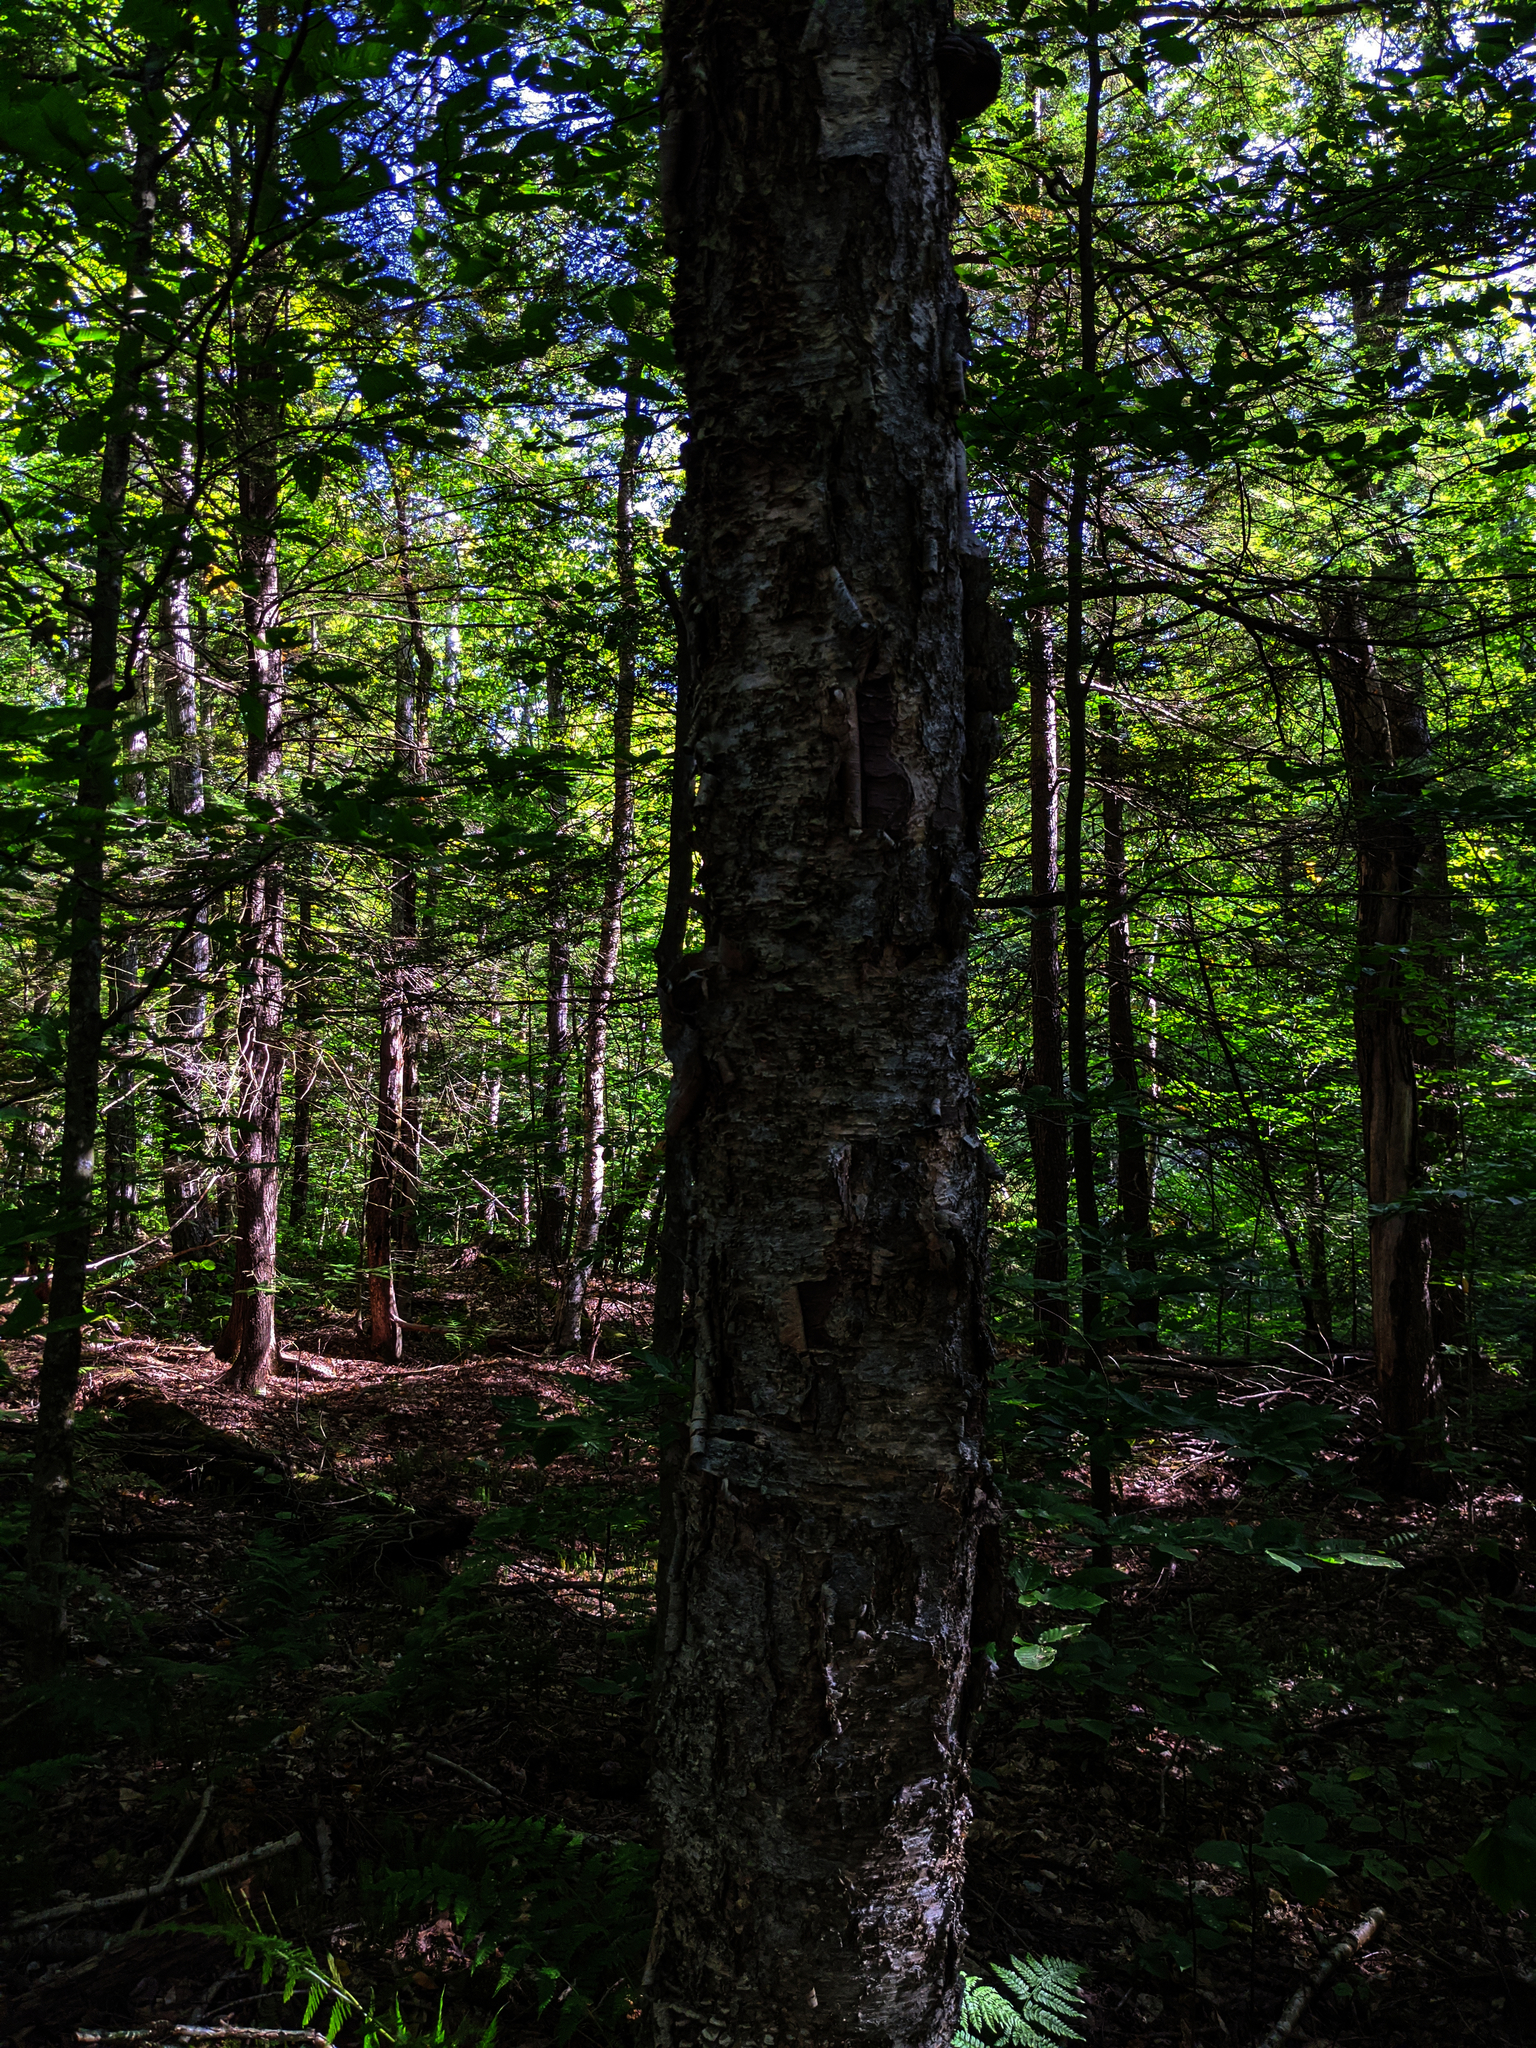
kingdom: Plantae
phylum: Tracheophyta
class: Magnoliopsida
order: Fagales
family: Betulaceae
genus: Betula
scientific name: Betula alleghaniensis
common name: Yellow birch
